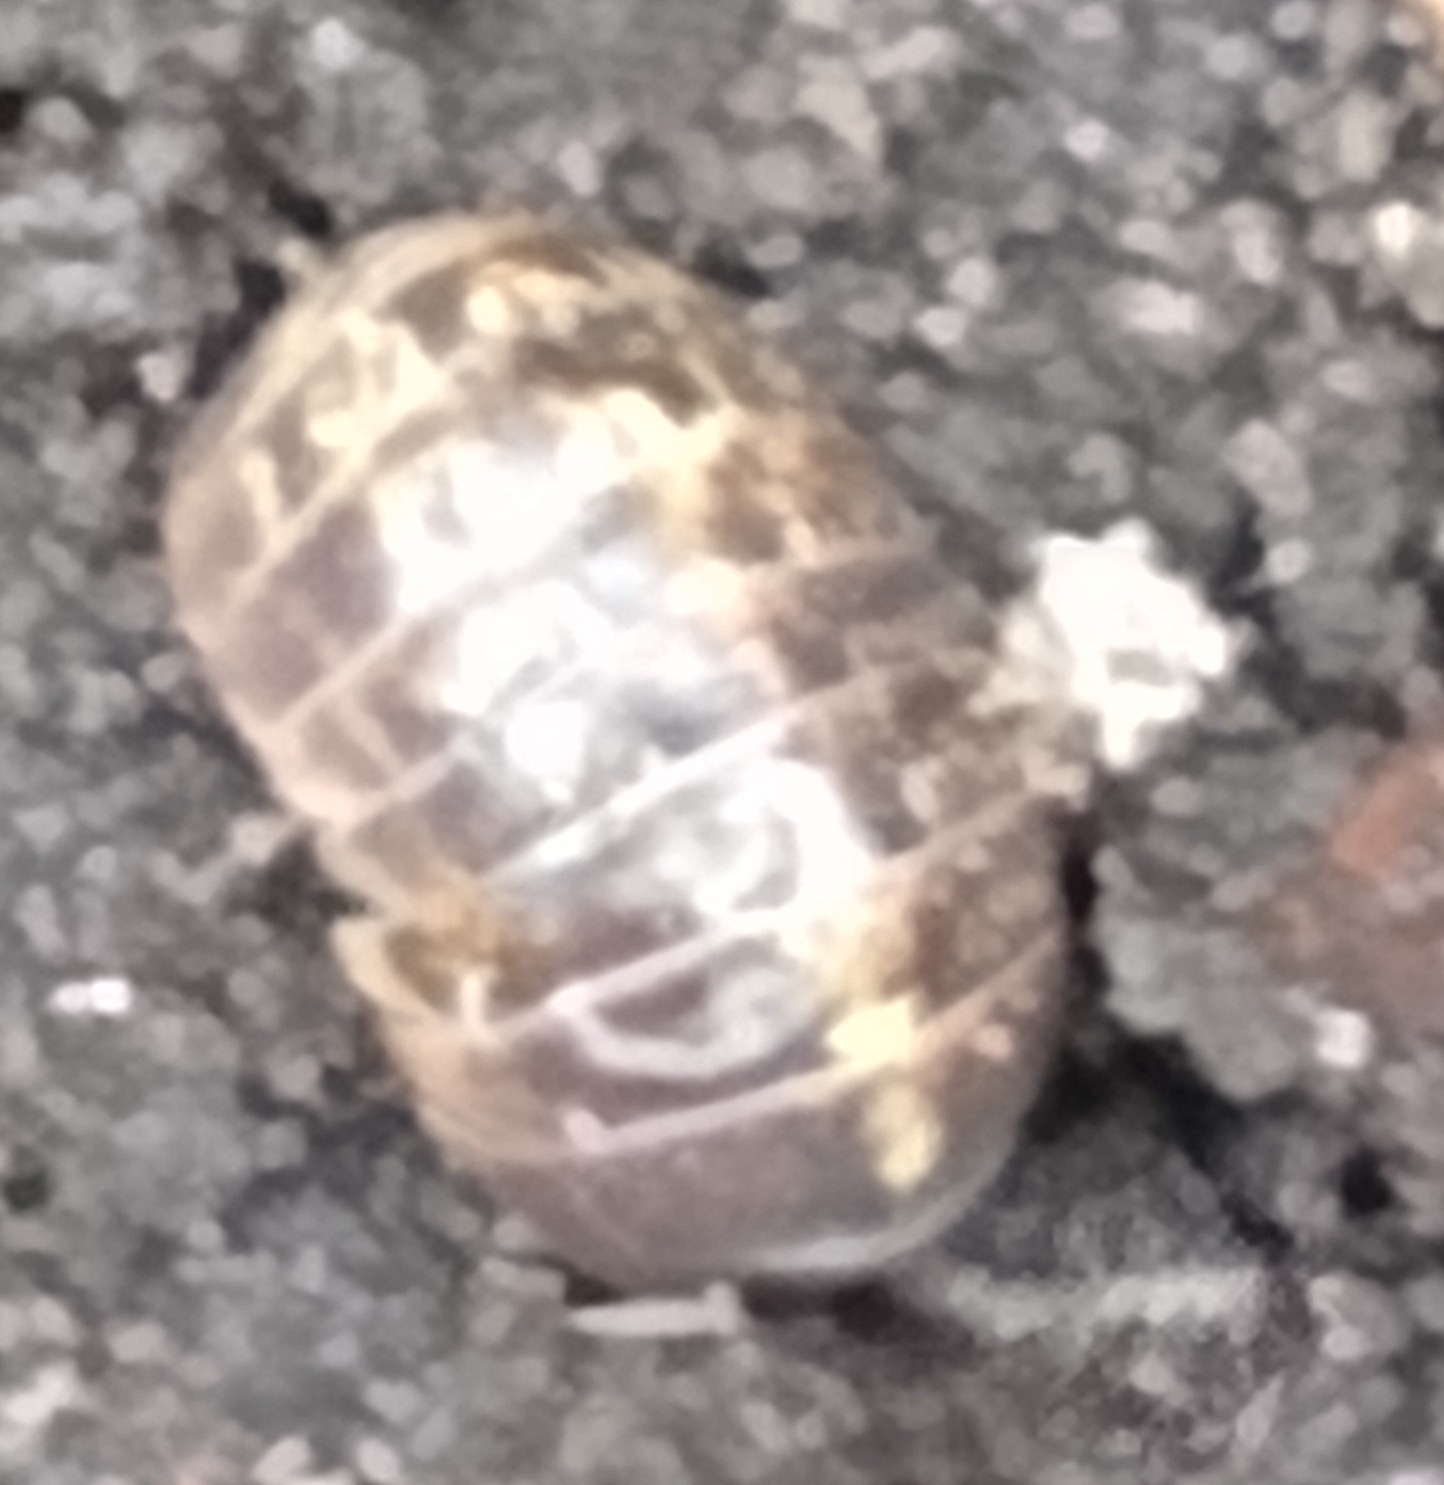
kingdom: Animalia
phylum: Arthropoda
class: Malacostraca
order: Isopoda
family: Armadillidiidae
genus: Armadillidium
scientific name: Armadillidium vulgare
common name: Common pill woodlouse
